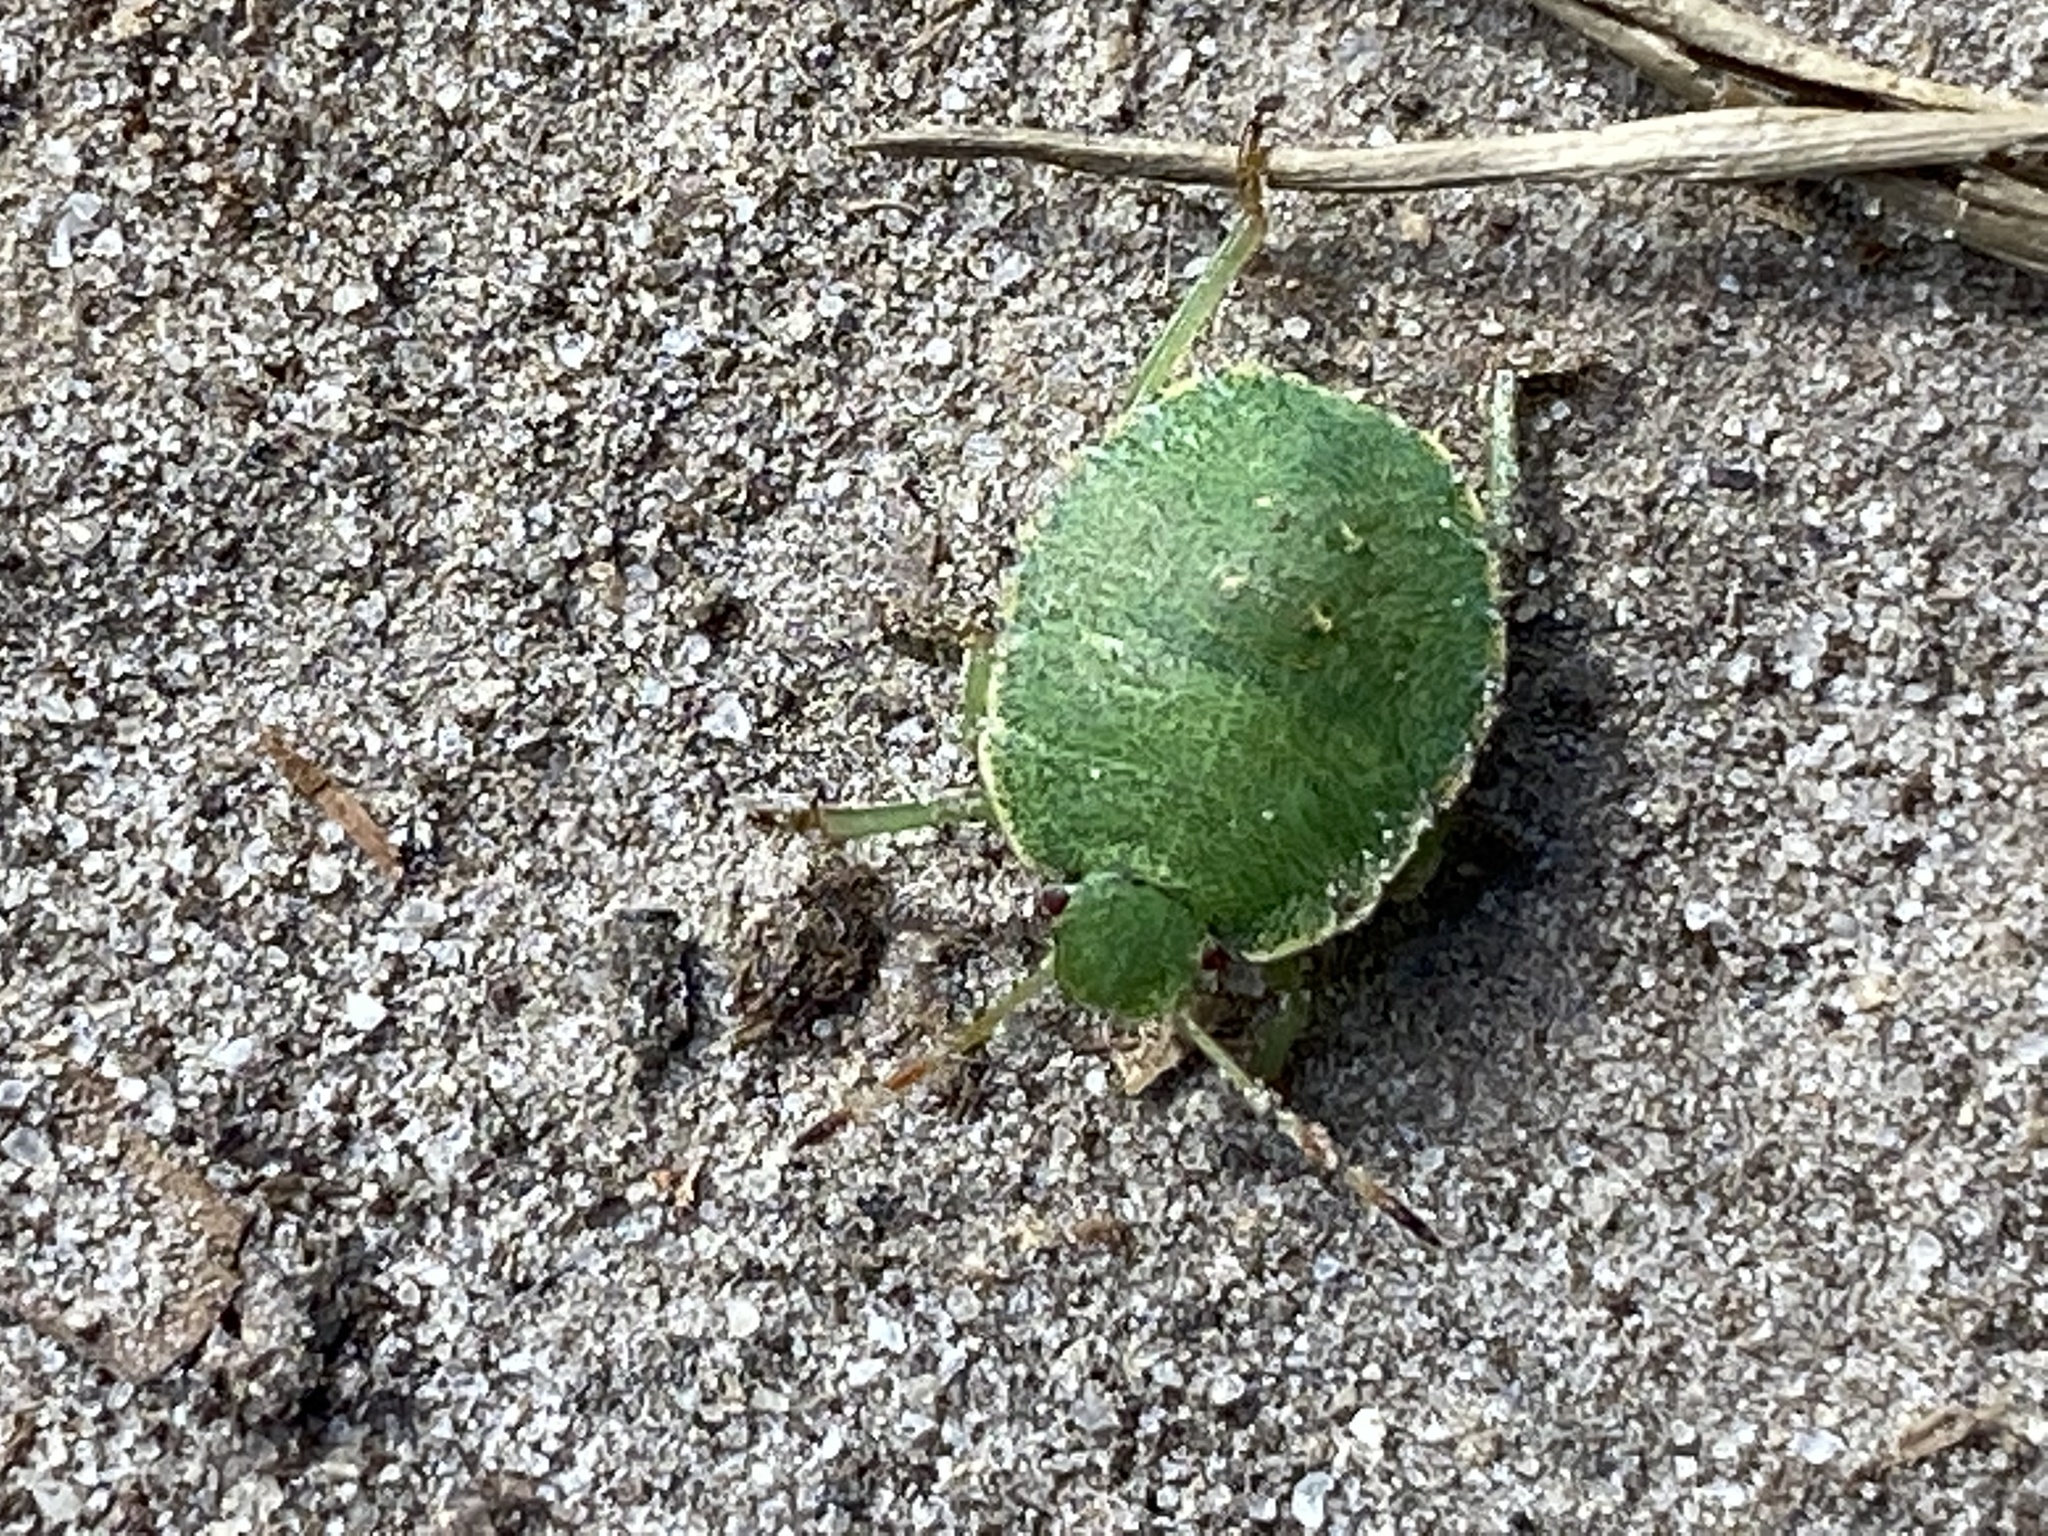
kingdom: Animalia
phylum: Arthropoda
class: Insecta
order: Hemiptera
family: Pentatomidae
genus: Palomena
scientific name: Palomena prasina
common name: Green shieldbug
